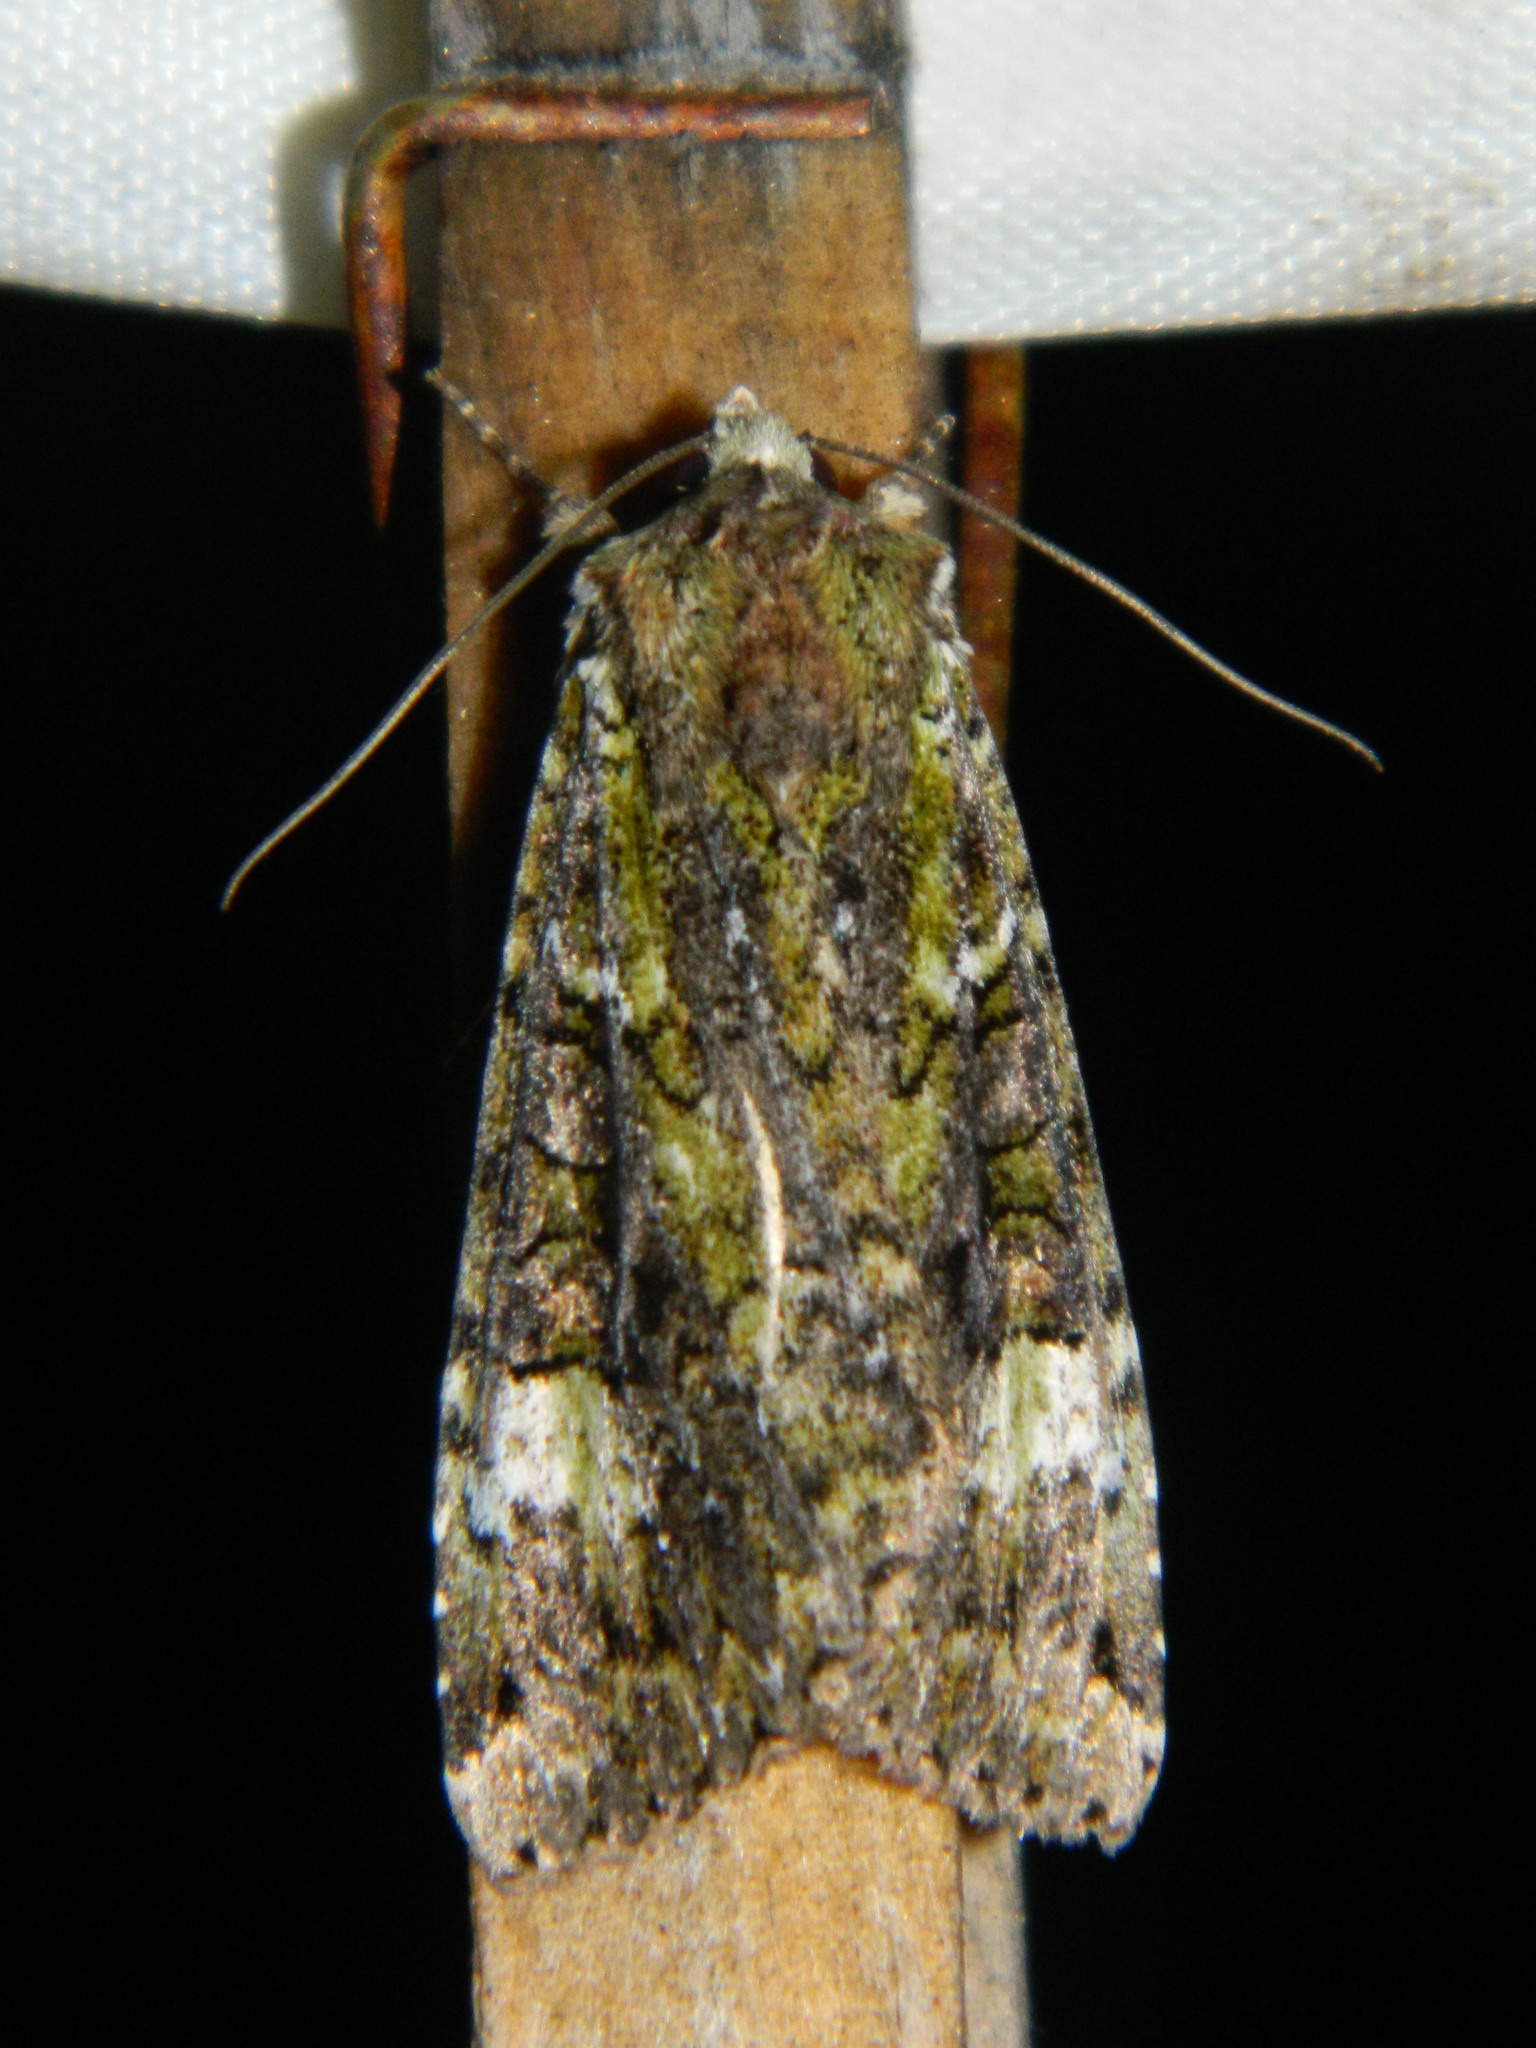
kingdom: Animalia
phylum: Arthropoda
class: Insecta
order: Lepidoptera
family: Noctuidae
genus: Anaplectoides
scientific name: Anaplectoides prasina
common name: Green arches
